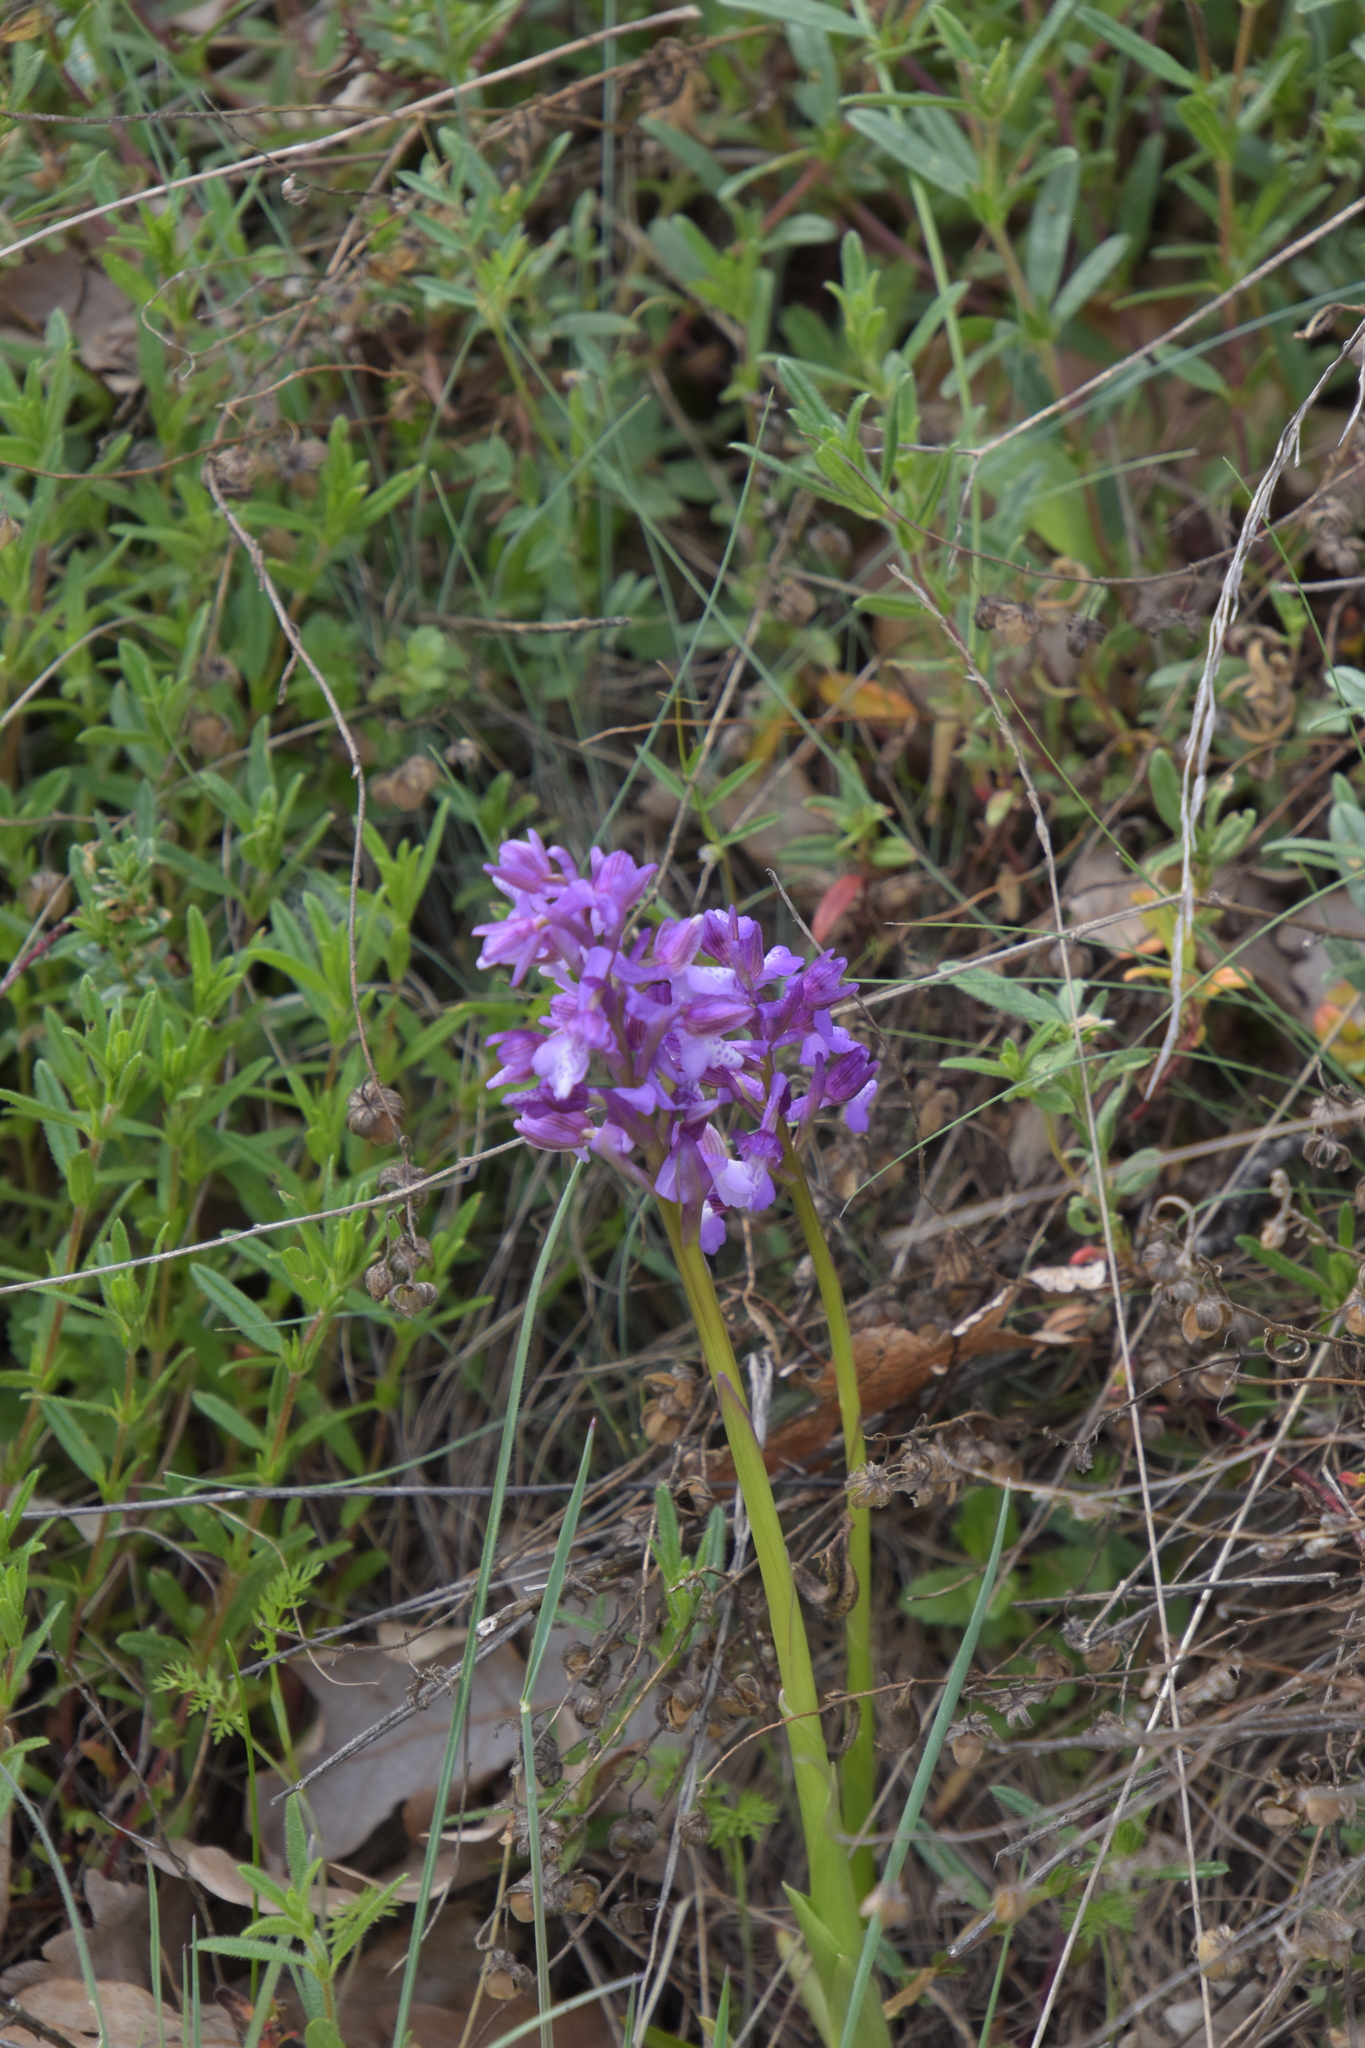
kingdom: Plantae
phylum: Tracheophyta
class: Liliopsida
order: Asparagales
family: Orchidaceae
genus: Anacamptis
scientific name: Anacamptis morio
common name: Green-winged orchid
